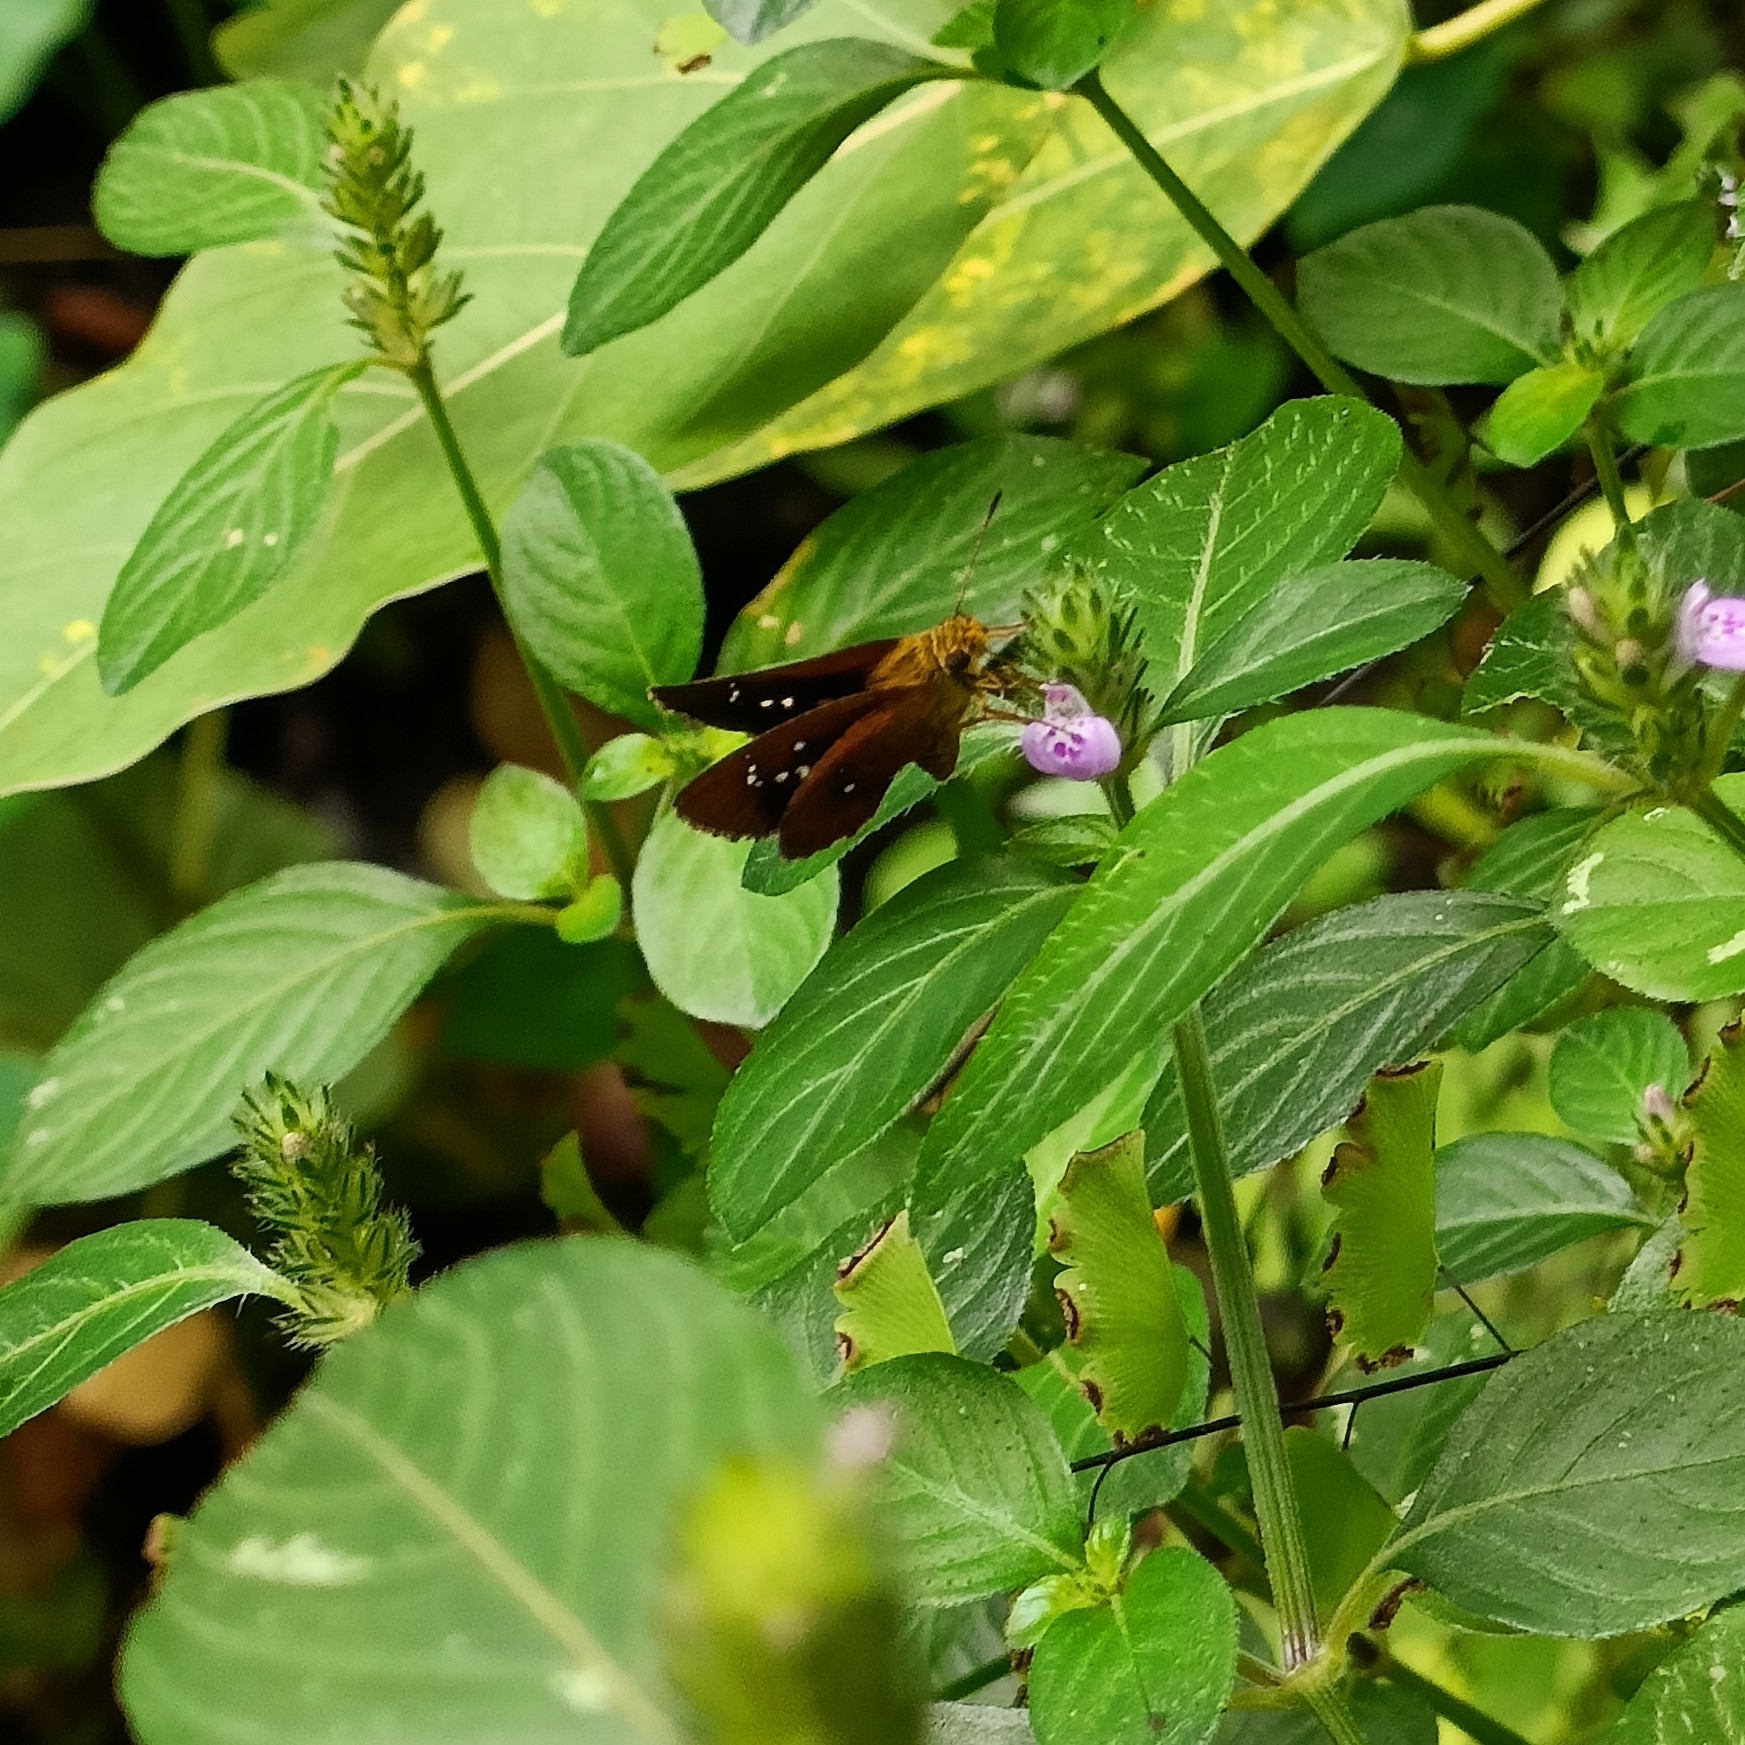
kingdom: Animalia
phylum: Arthropoda
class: Insecta
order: Lepidoptera
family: Hesperiidae
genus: Iambrix
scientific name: Iambrix salsala
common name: Chestnut bob
